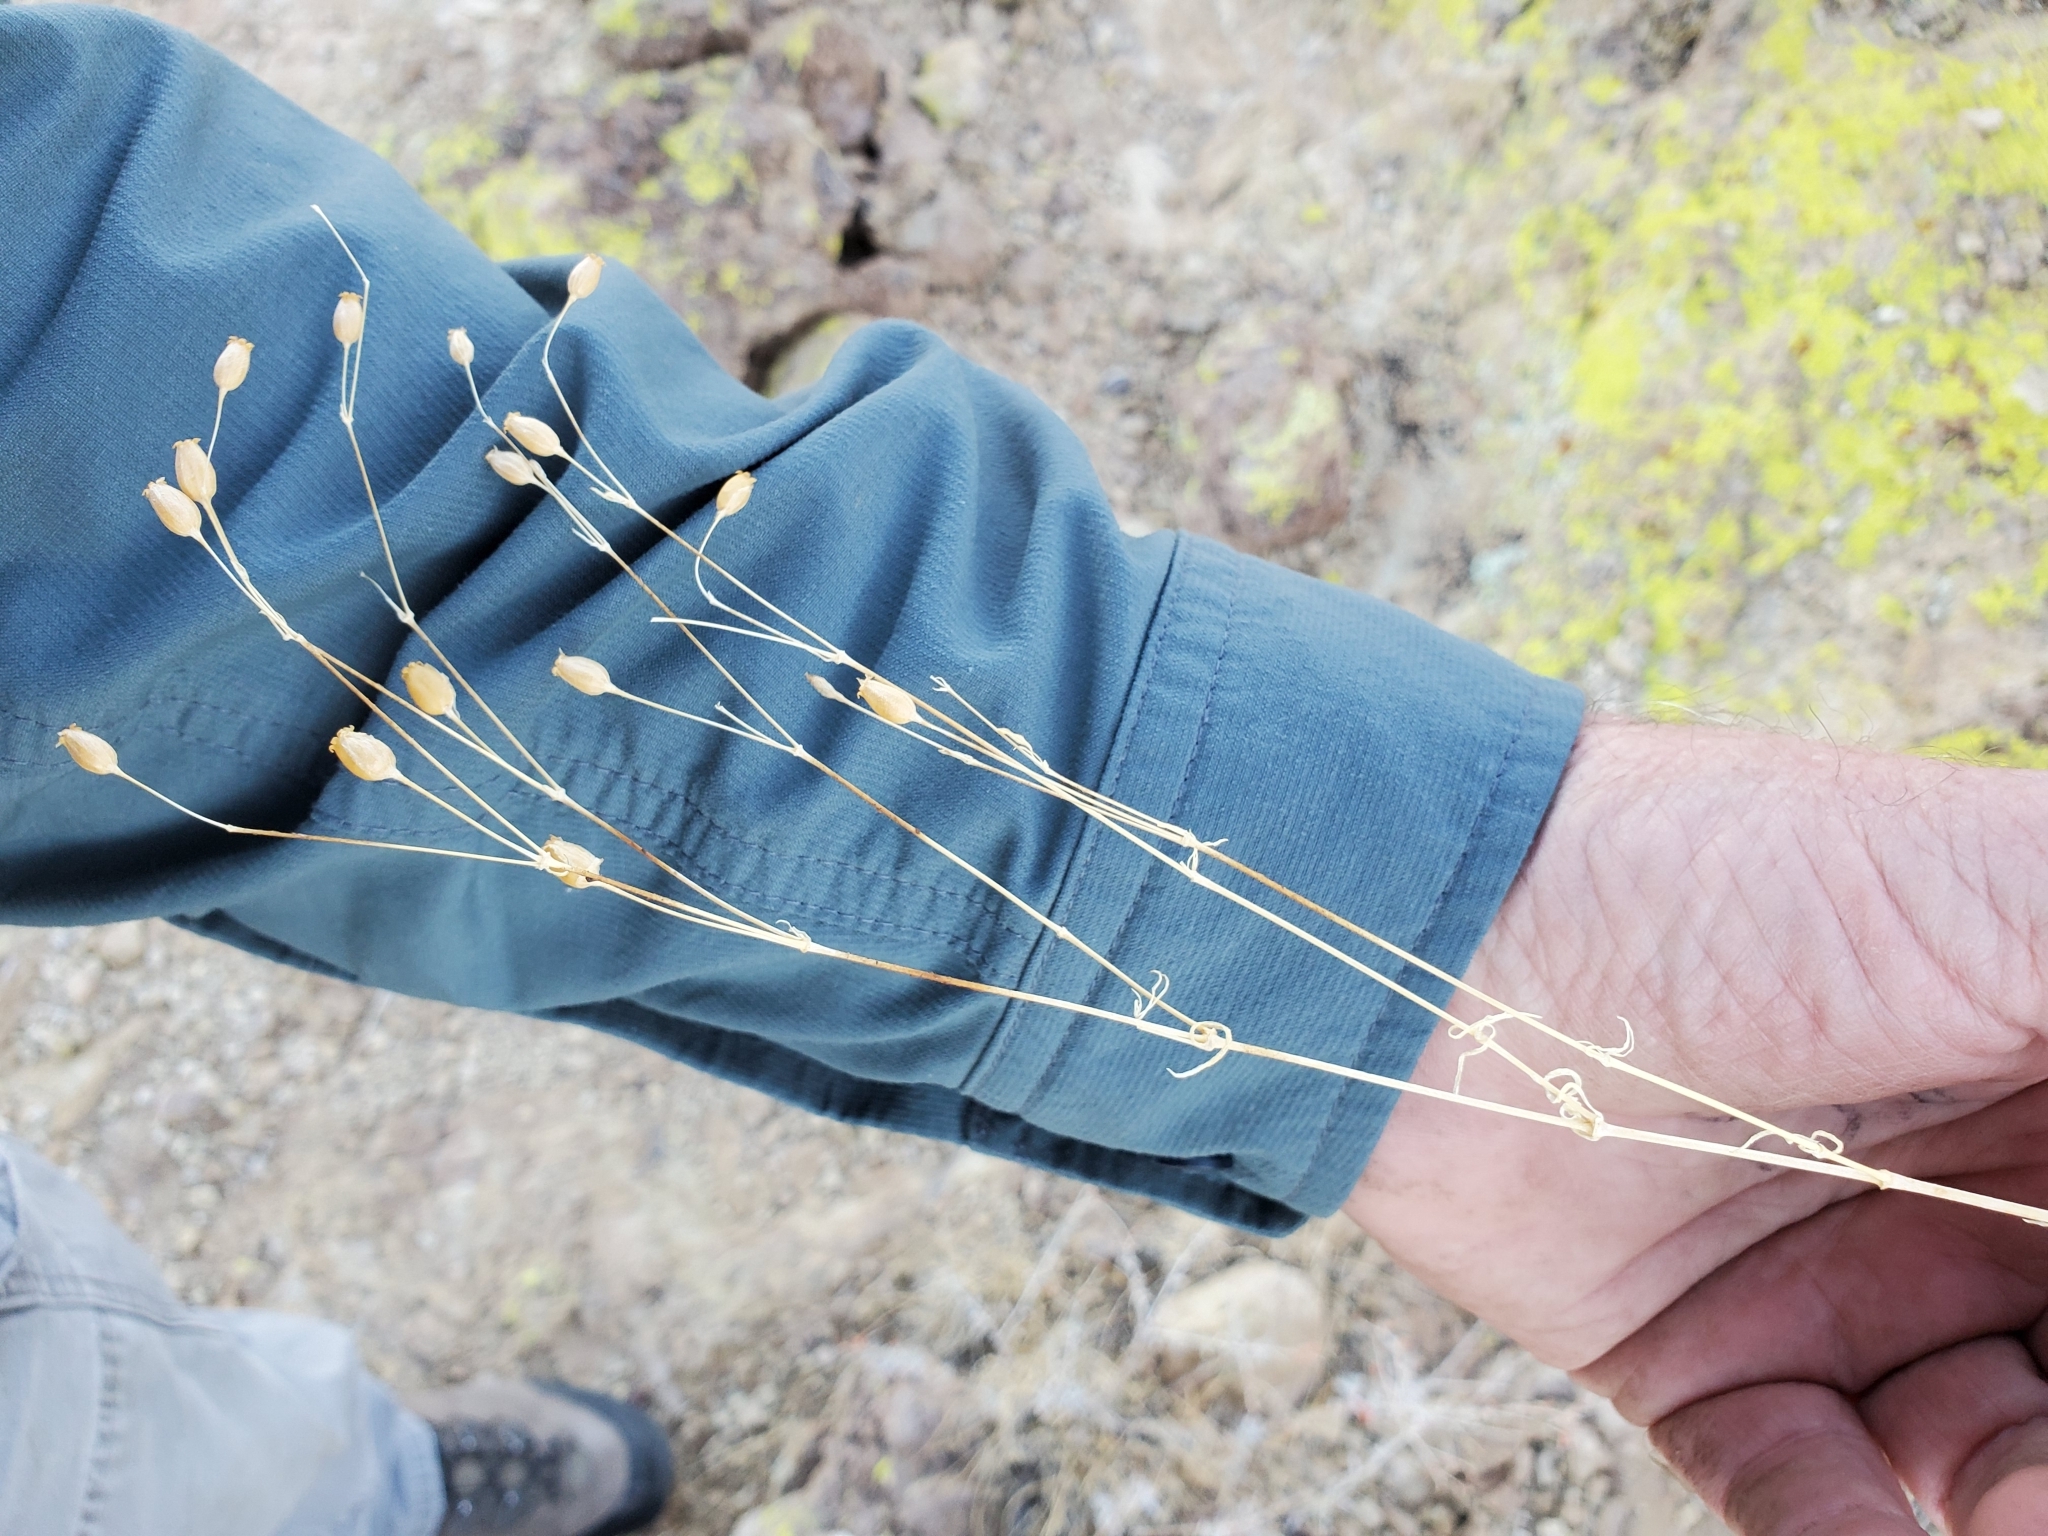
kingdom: Plantae
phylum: Tracheophyta
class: Magnoliopsida
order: Caryophyllales
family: Caryophyllaceae
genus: Silene
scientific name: Silene antirrhina
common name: Sleepy catchfly
